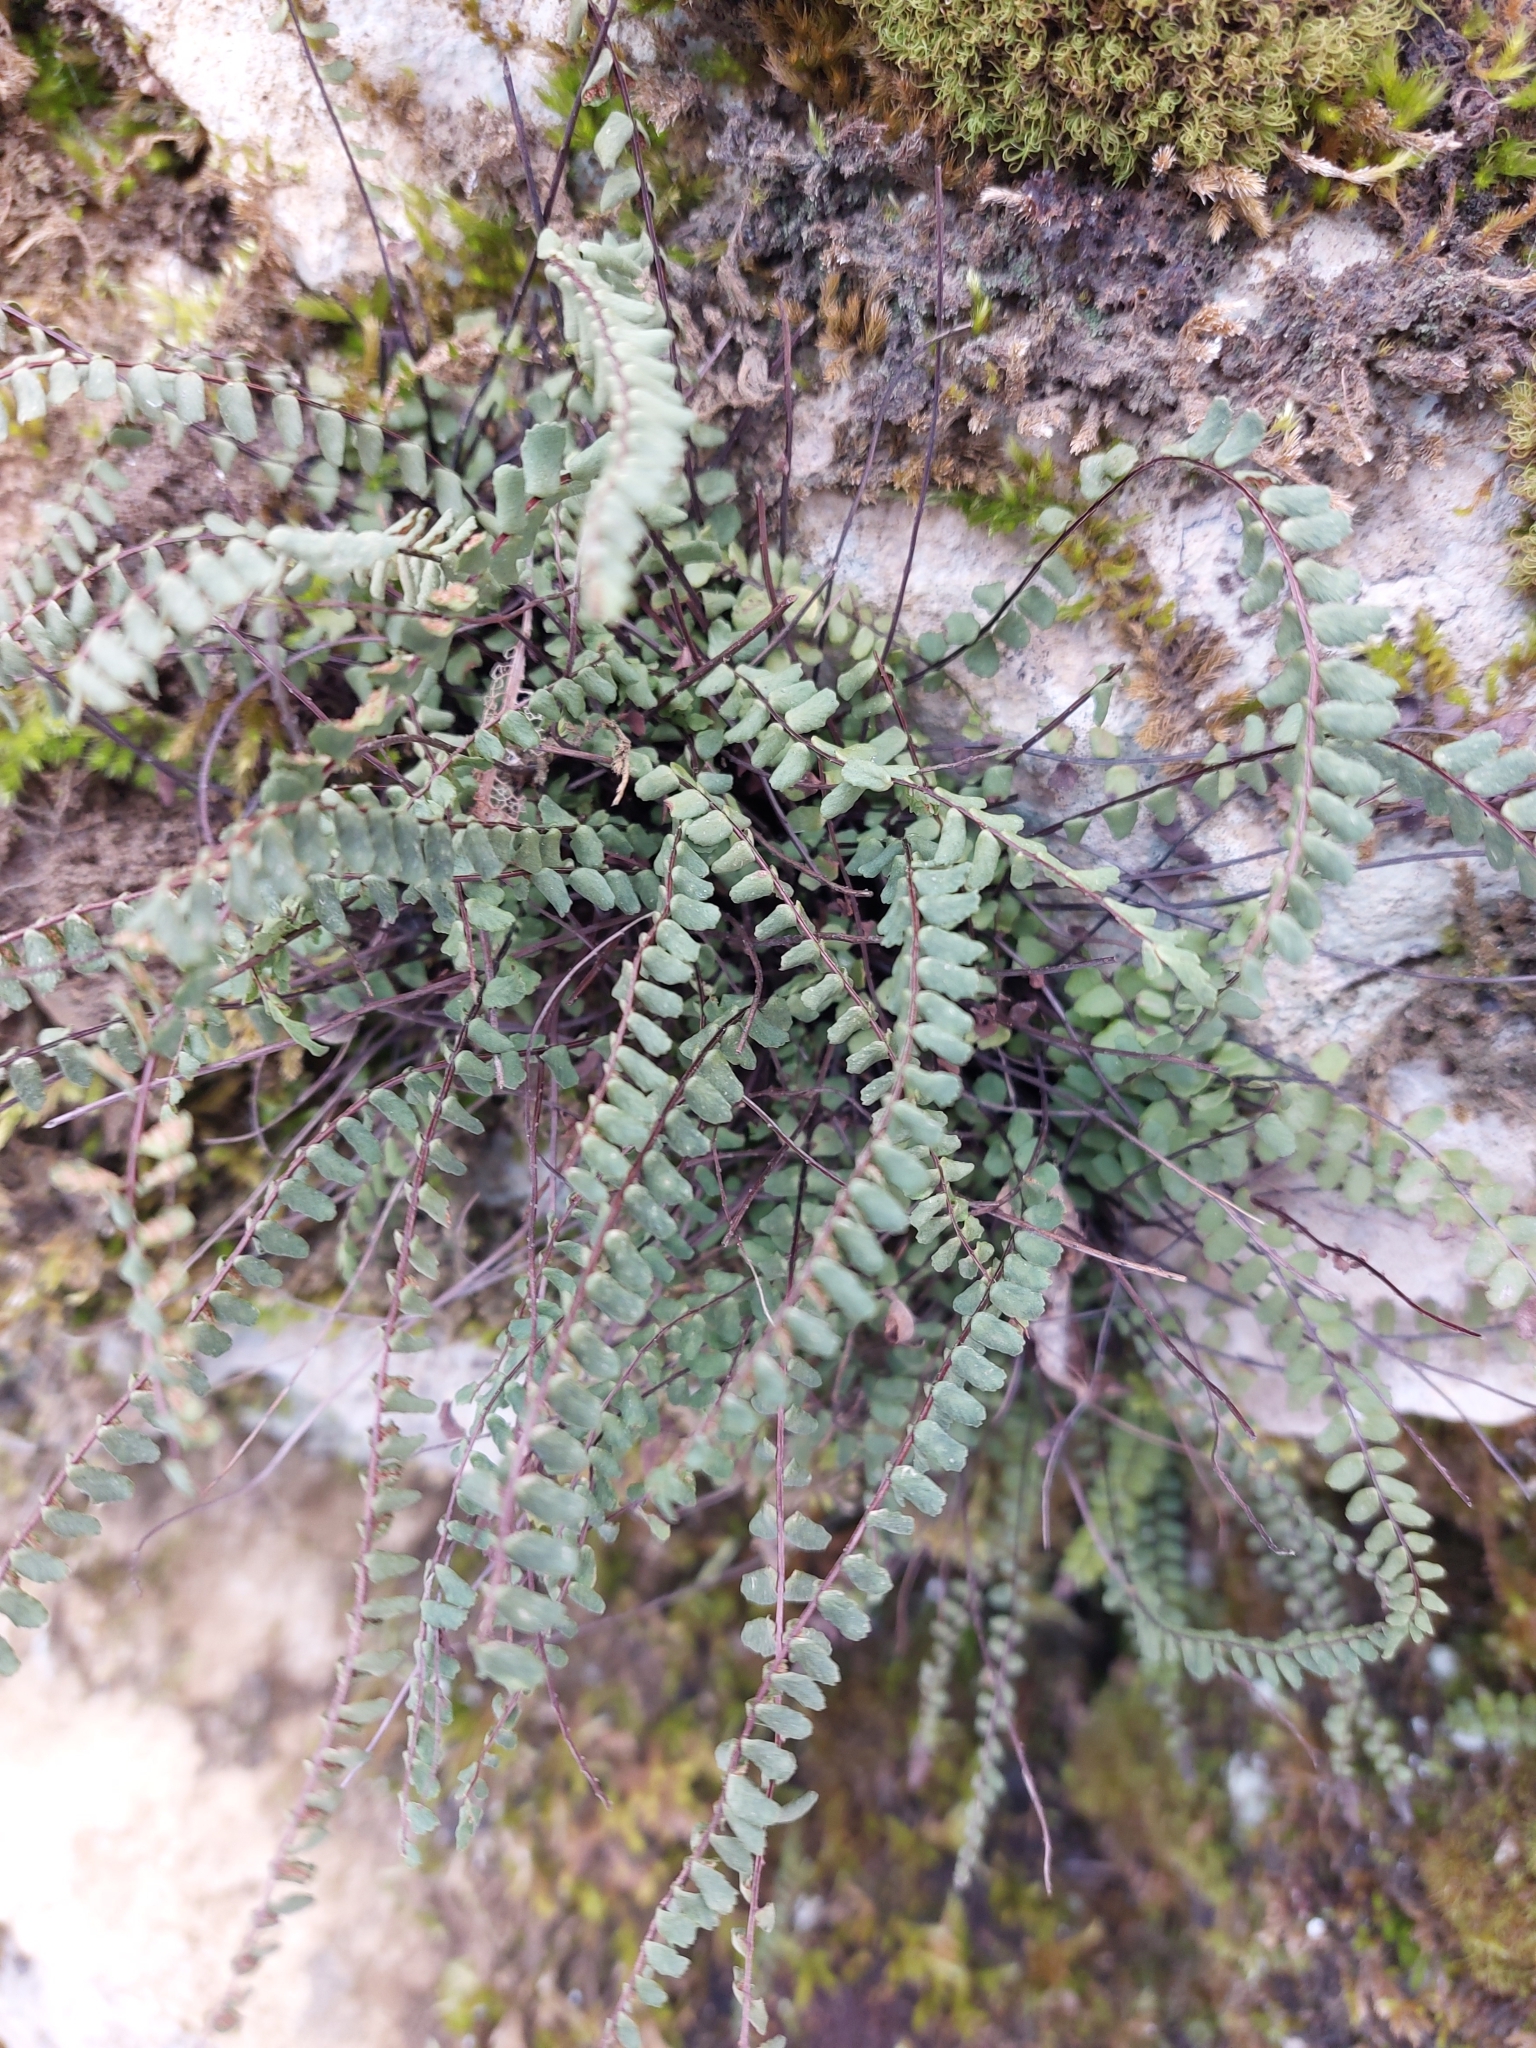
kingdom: Plantae
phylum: Tracheophyta
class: Polypodiopsida
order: Polypodiales
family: Aspleniaceae
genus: Asplenium
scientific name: Asplenium trichomanes
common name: Maidenhair spleenwort
